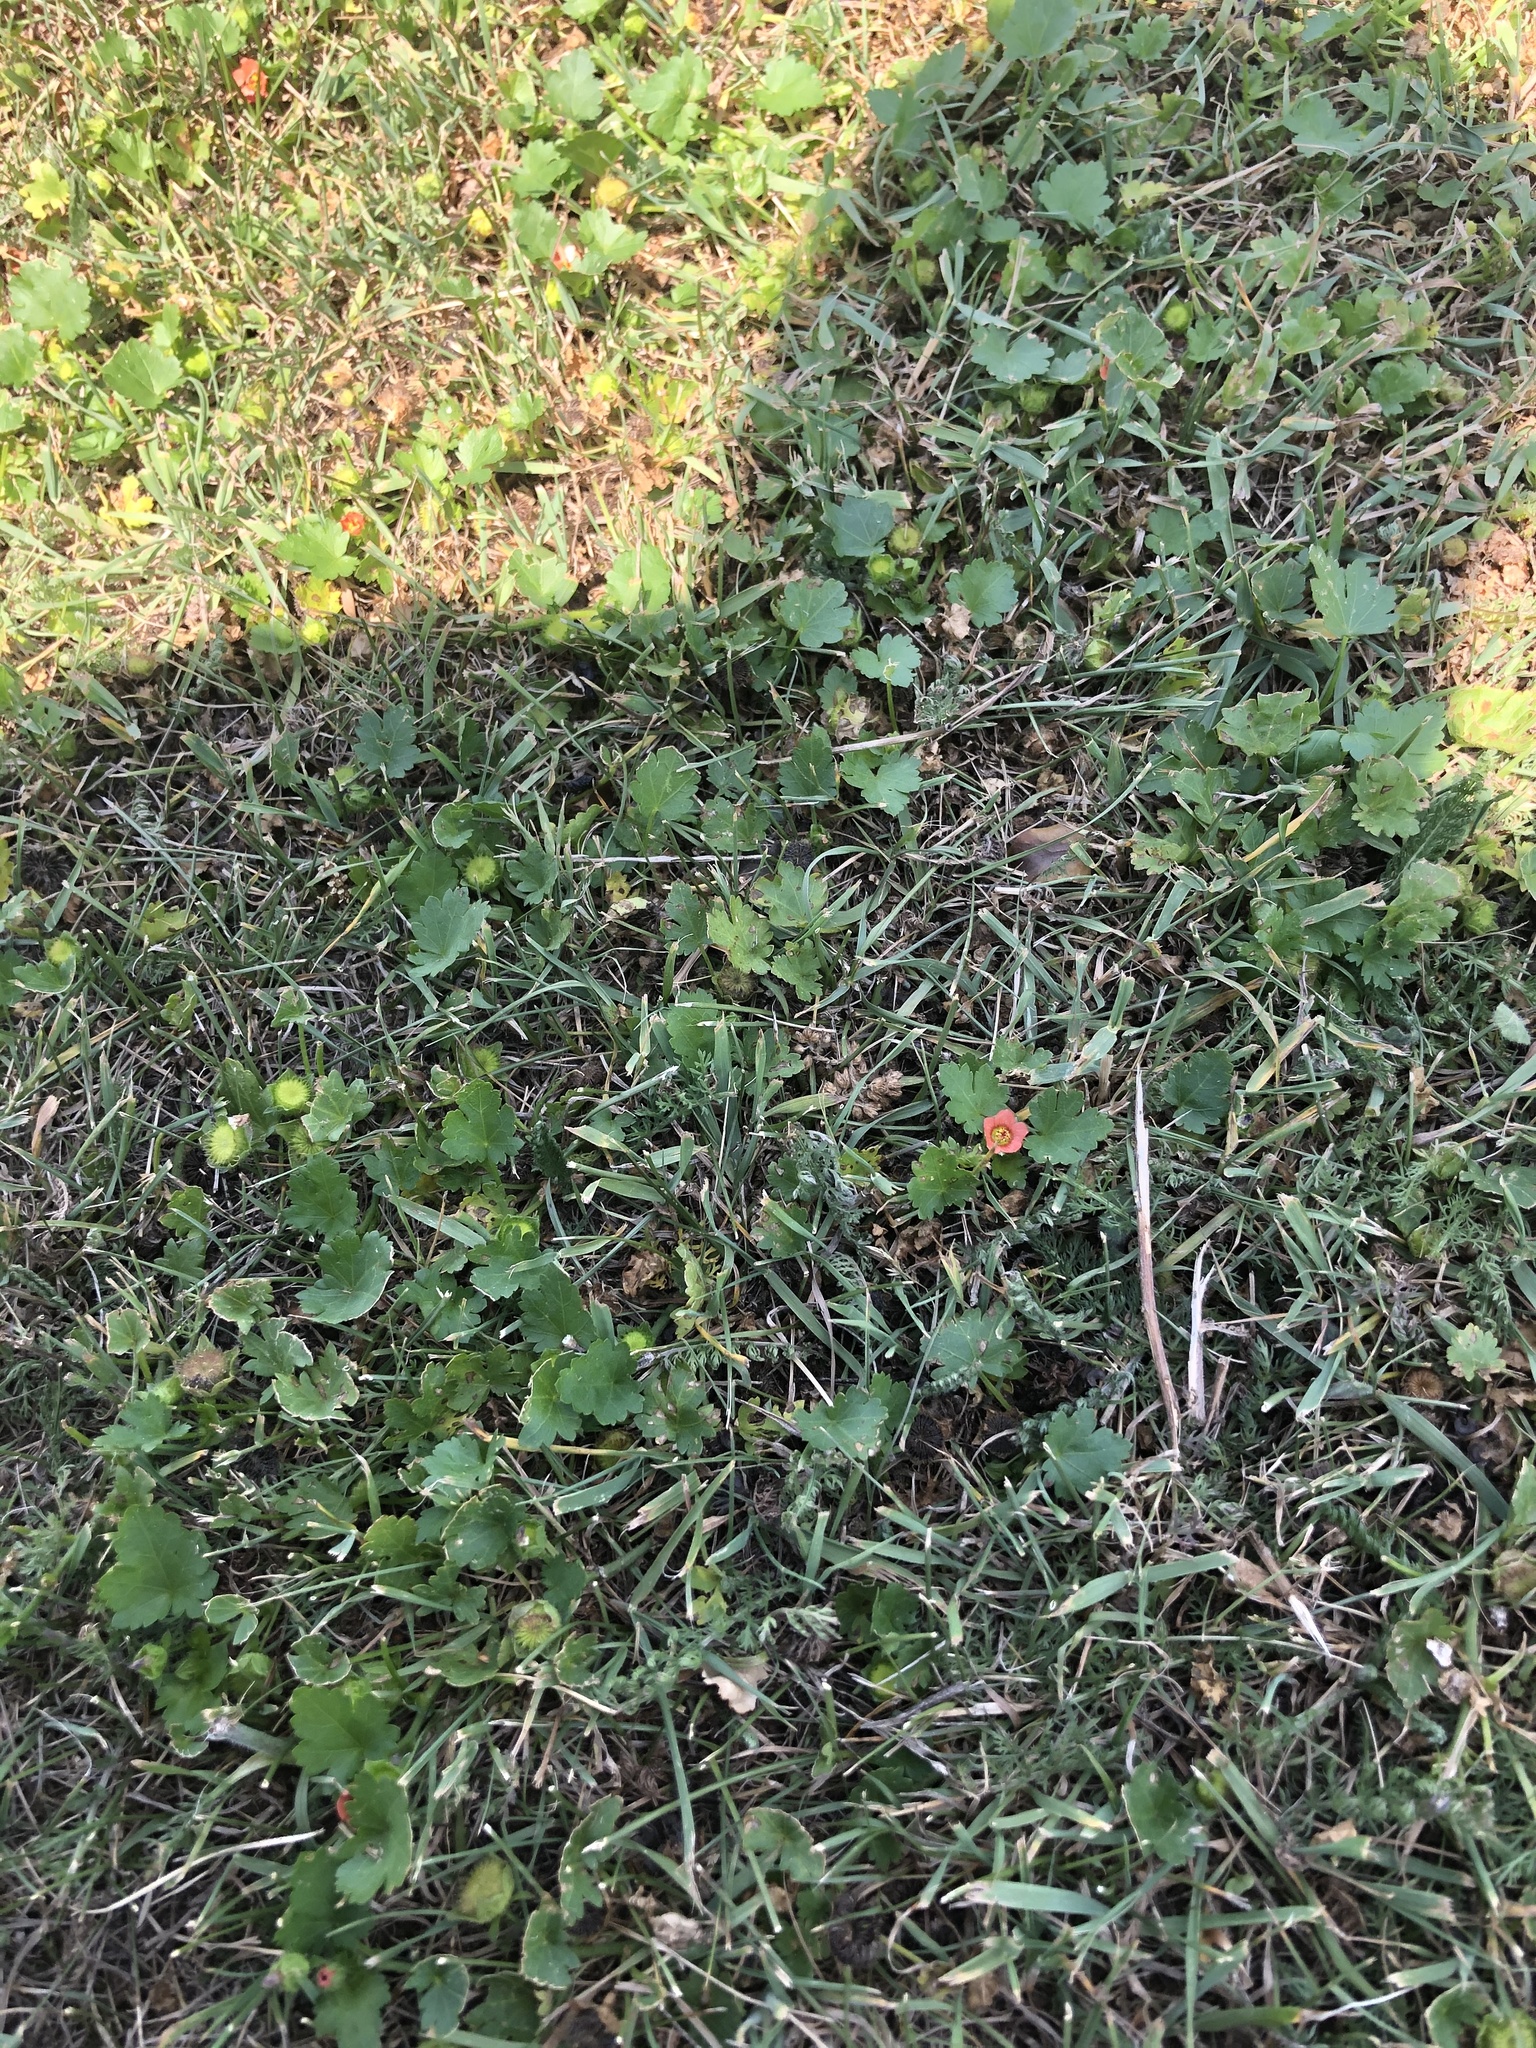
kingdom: Plantae
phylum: Tracheophyta
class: Magnoliopsida
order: Malvales
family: Malvaceae
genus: Modiola
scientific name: Modiola caroliniana
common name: Carolina bristlemallow
